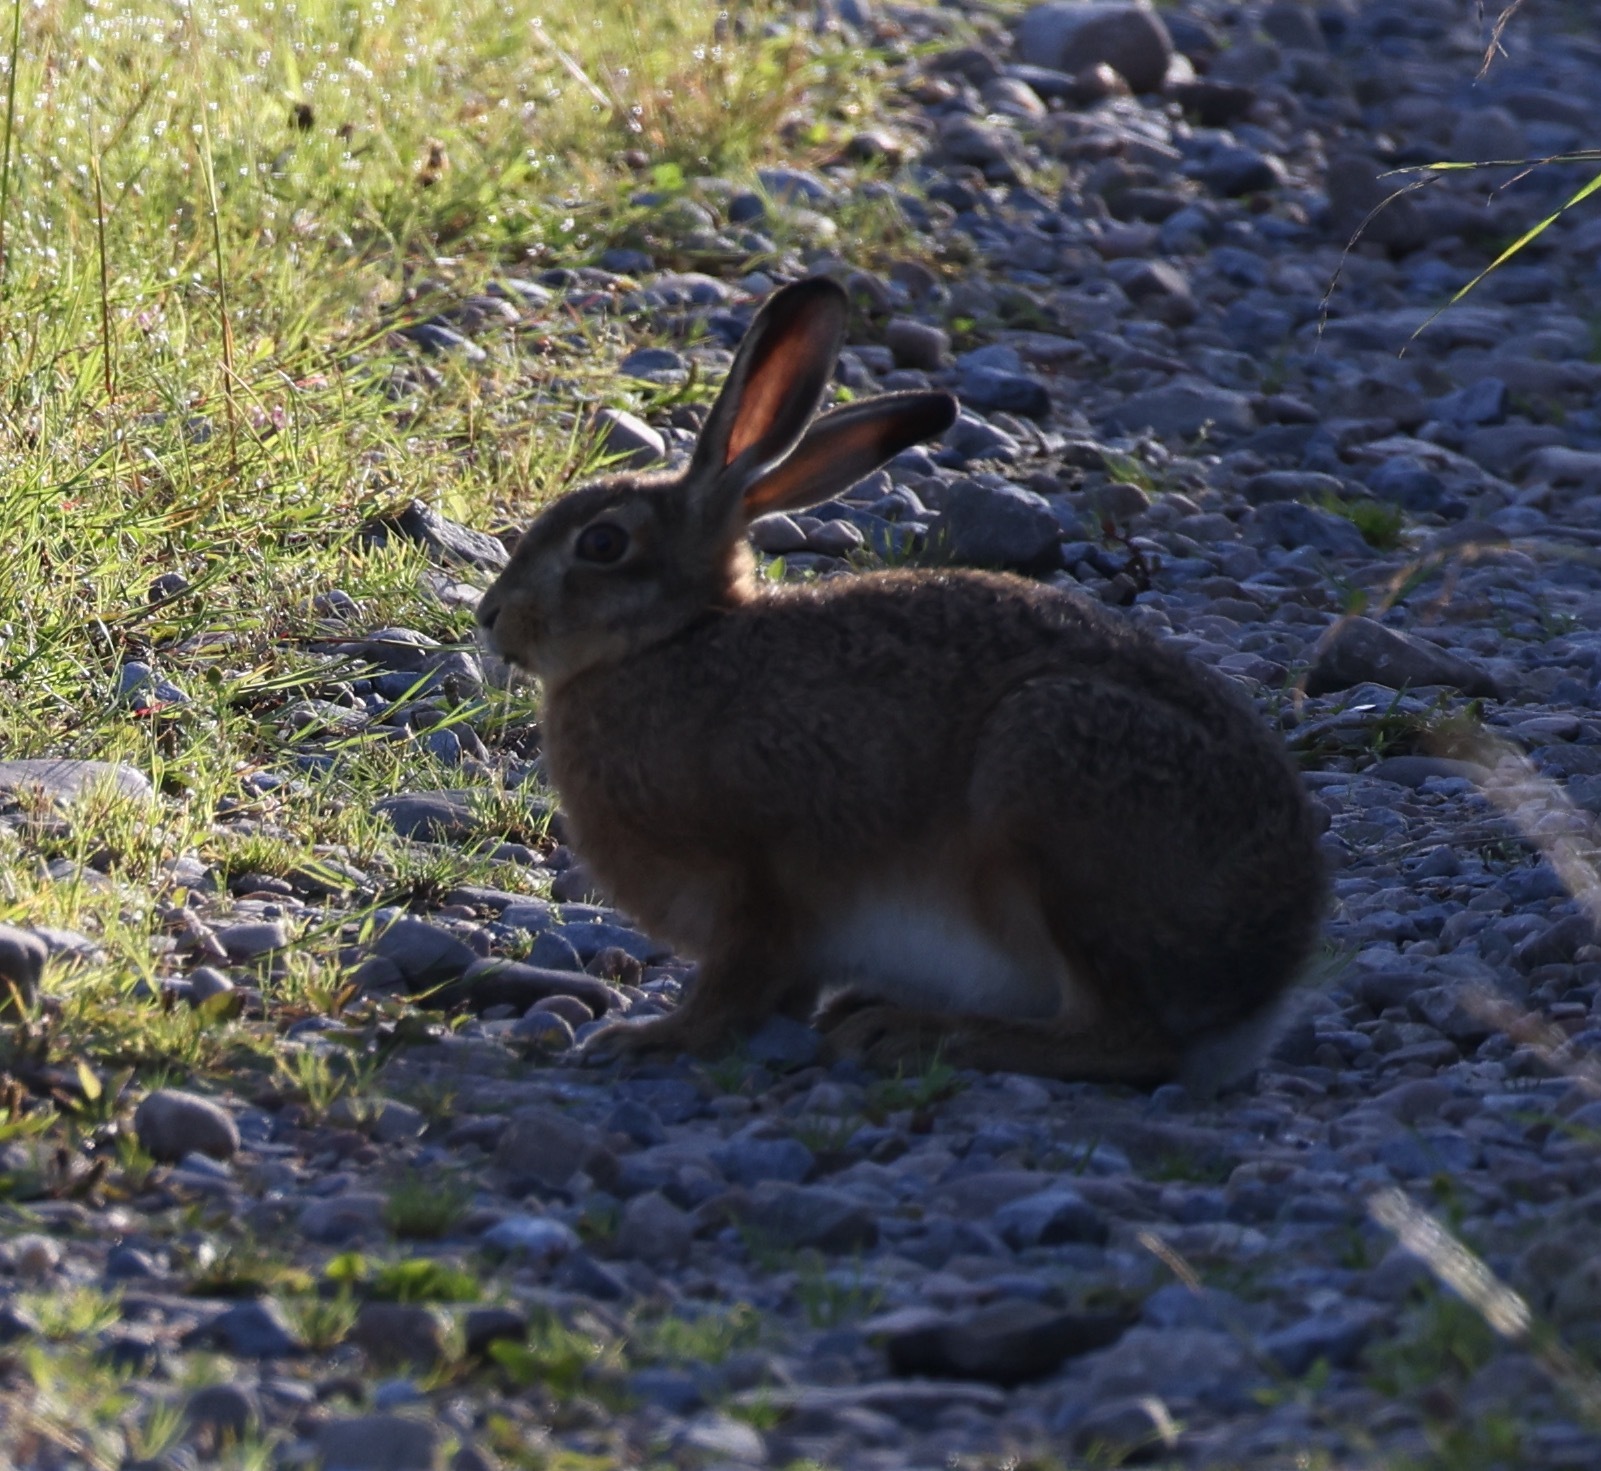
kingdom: Animalia
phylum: Chordata
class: Mammalia
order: Lagomorpha
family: Leporidae
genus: Lepus
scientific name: Lepus europaeus
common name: European hare
